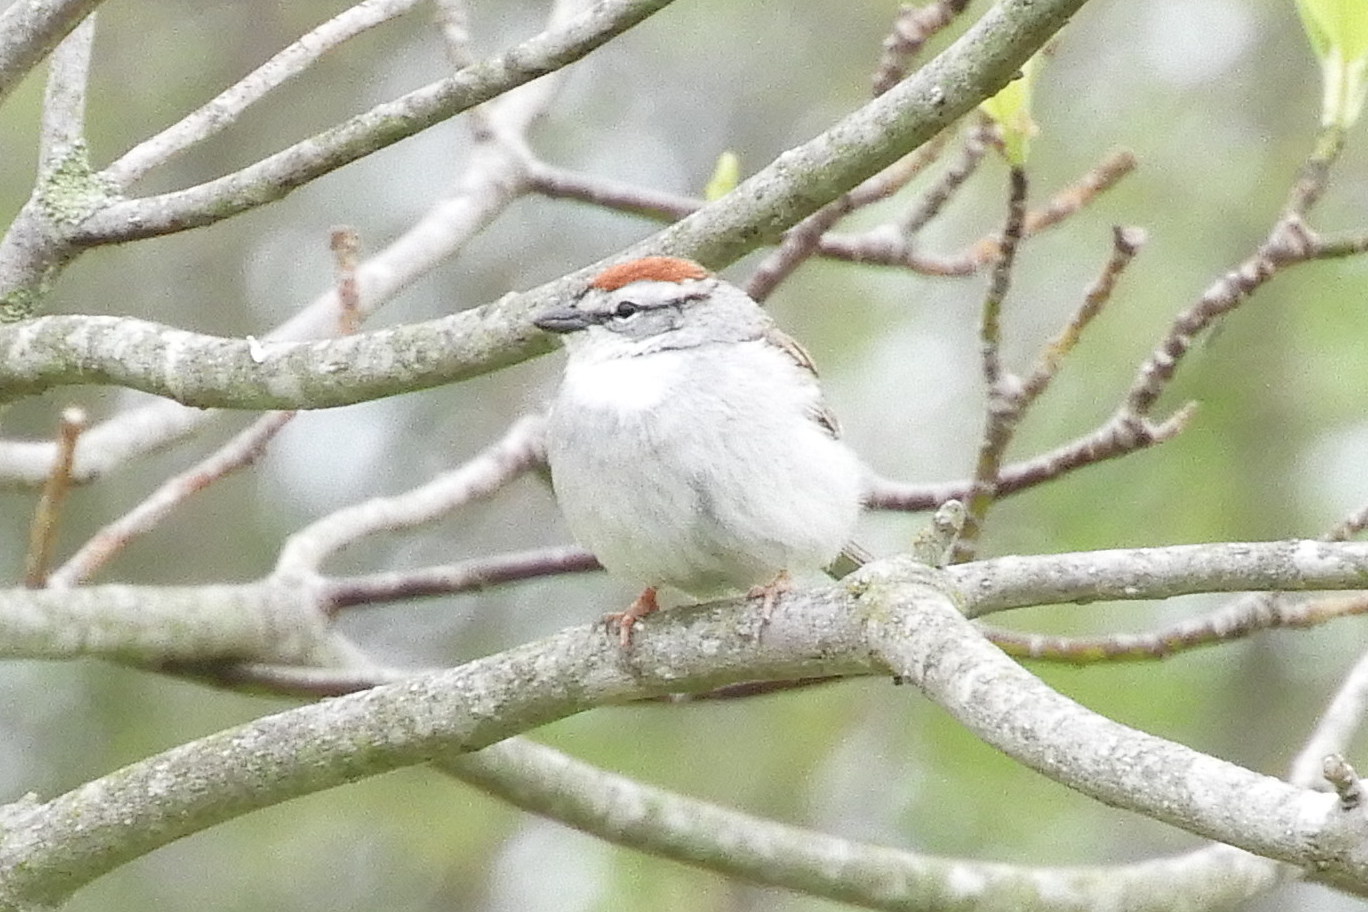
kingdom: Animalia
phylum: Chordata
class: Aves
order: Passeriformes
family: Passerellidae
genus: Spizella
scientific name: Spizella passerina
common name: Chipping sparrow
